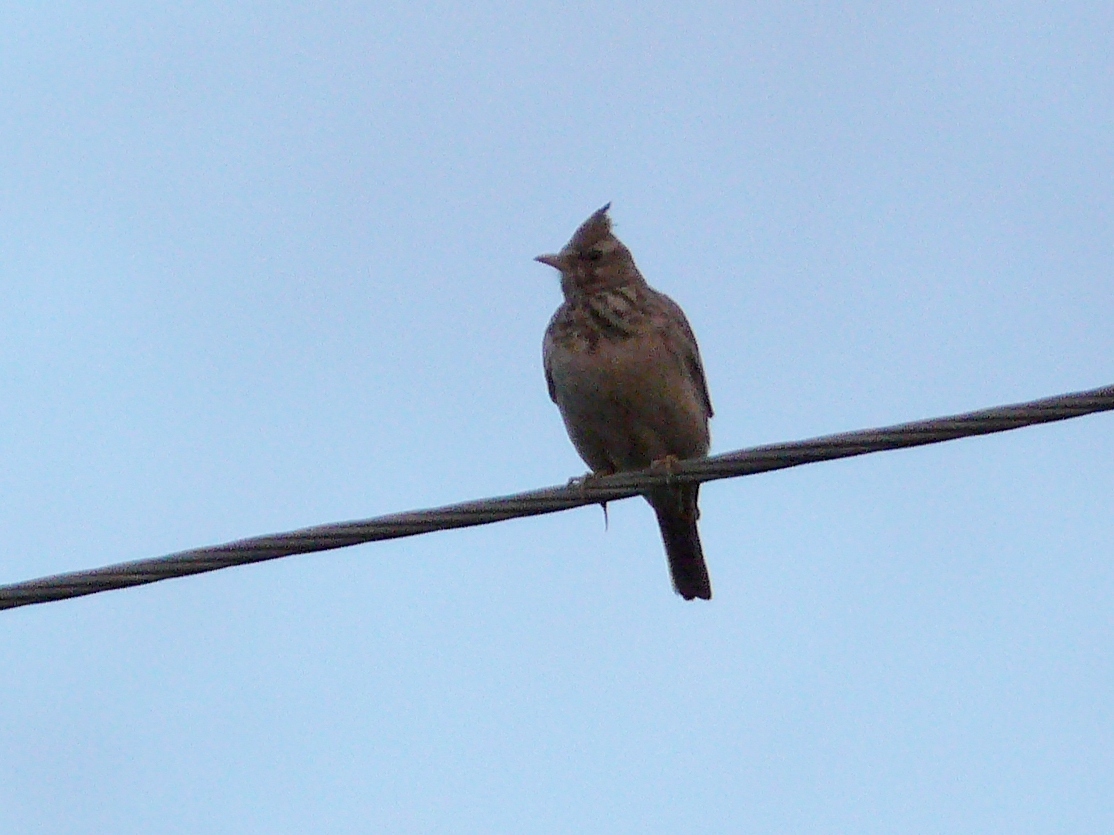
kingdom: Animalia
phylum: Chordata
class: Aves
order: Passeriformes
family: Alaudidae
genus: Galerida
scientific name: Galerida cristata
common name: Crested lark
